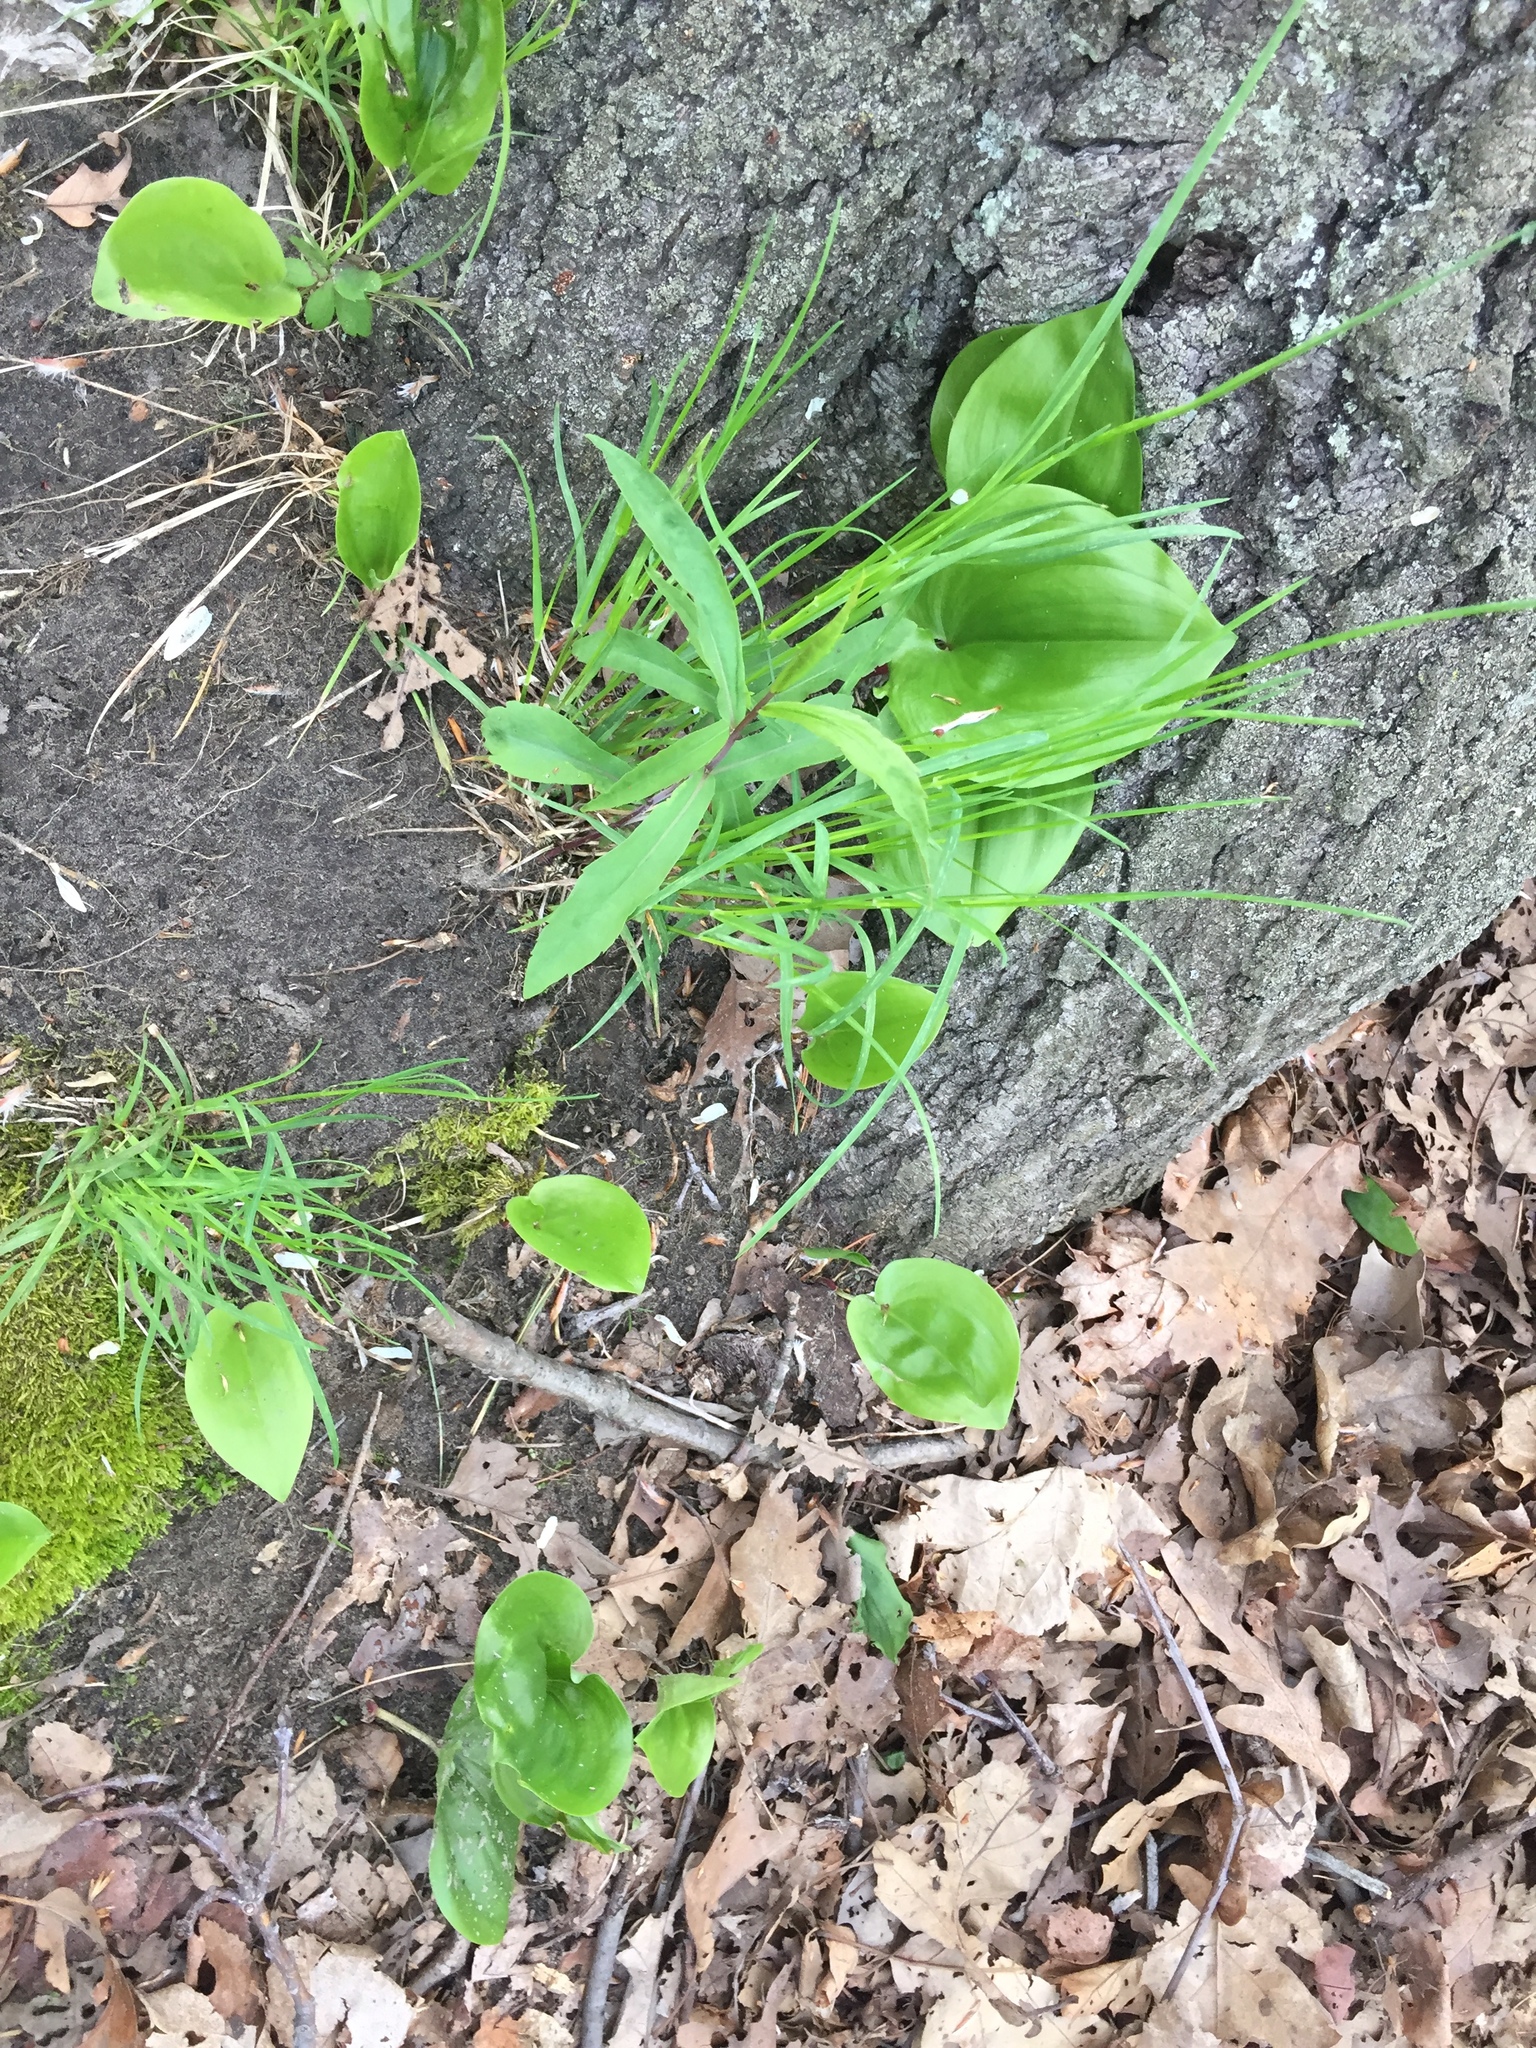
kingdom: Plantae
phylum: Tracheophyta
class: Liliopsida
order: Asparagales
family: Asparagaceae
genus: Maianthemum
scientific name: Maianthemum canadense
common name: False lily-of-the-valley
